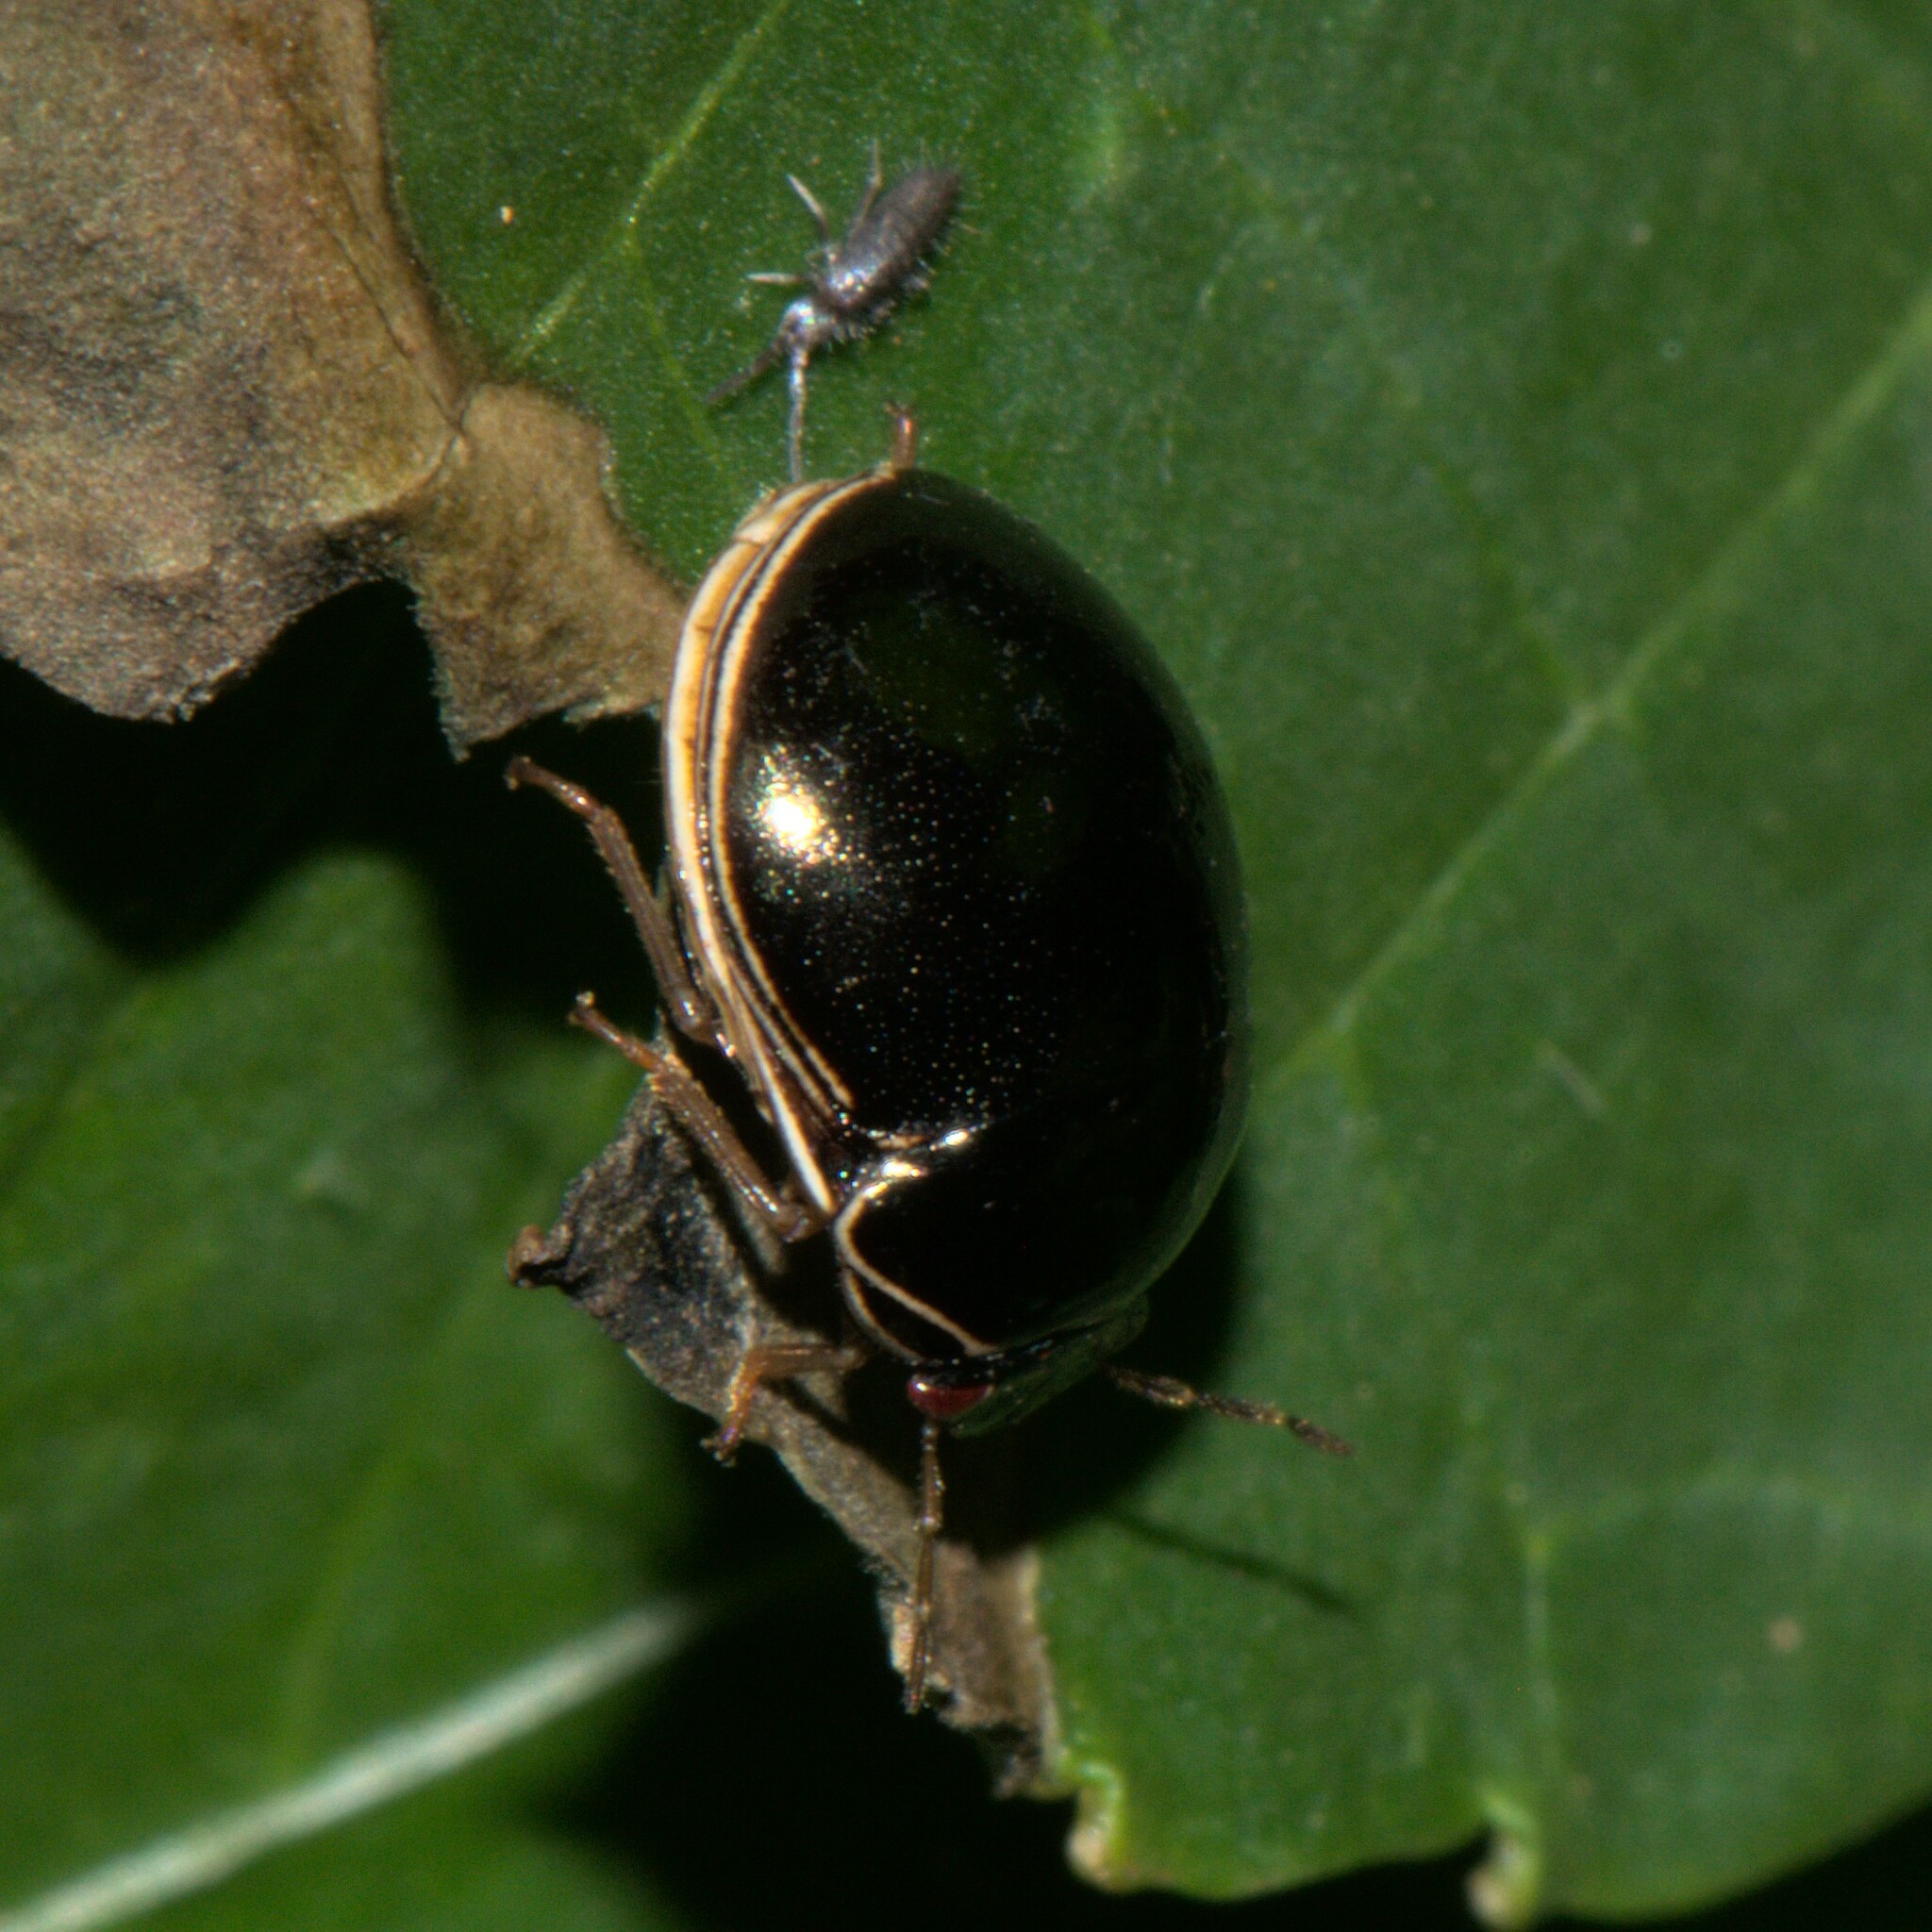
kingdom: Animalia
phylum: Arthropoda
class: Insecta
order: Hemiptera
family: Plataspidae
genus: Brachyplatys
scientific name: Brachyplatys subaeneus
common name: Black bean bug
